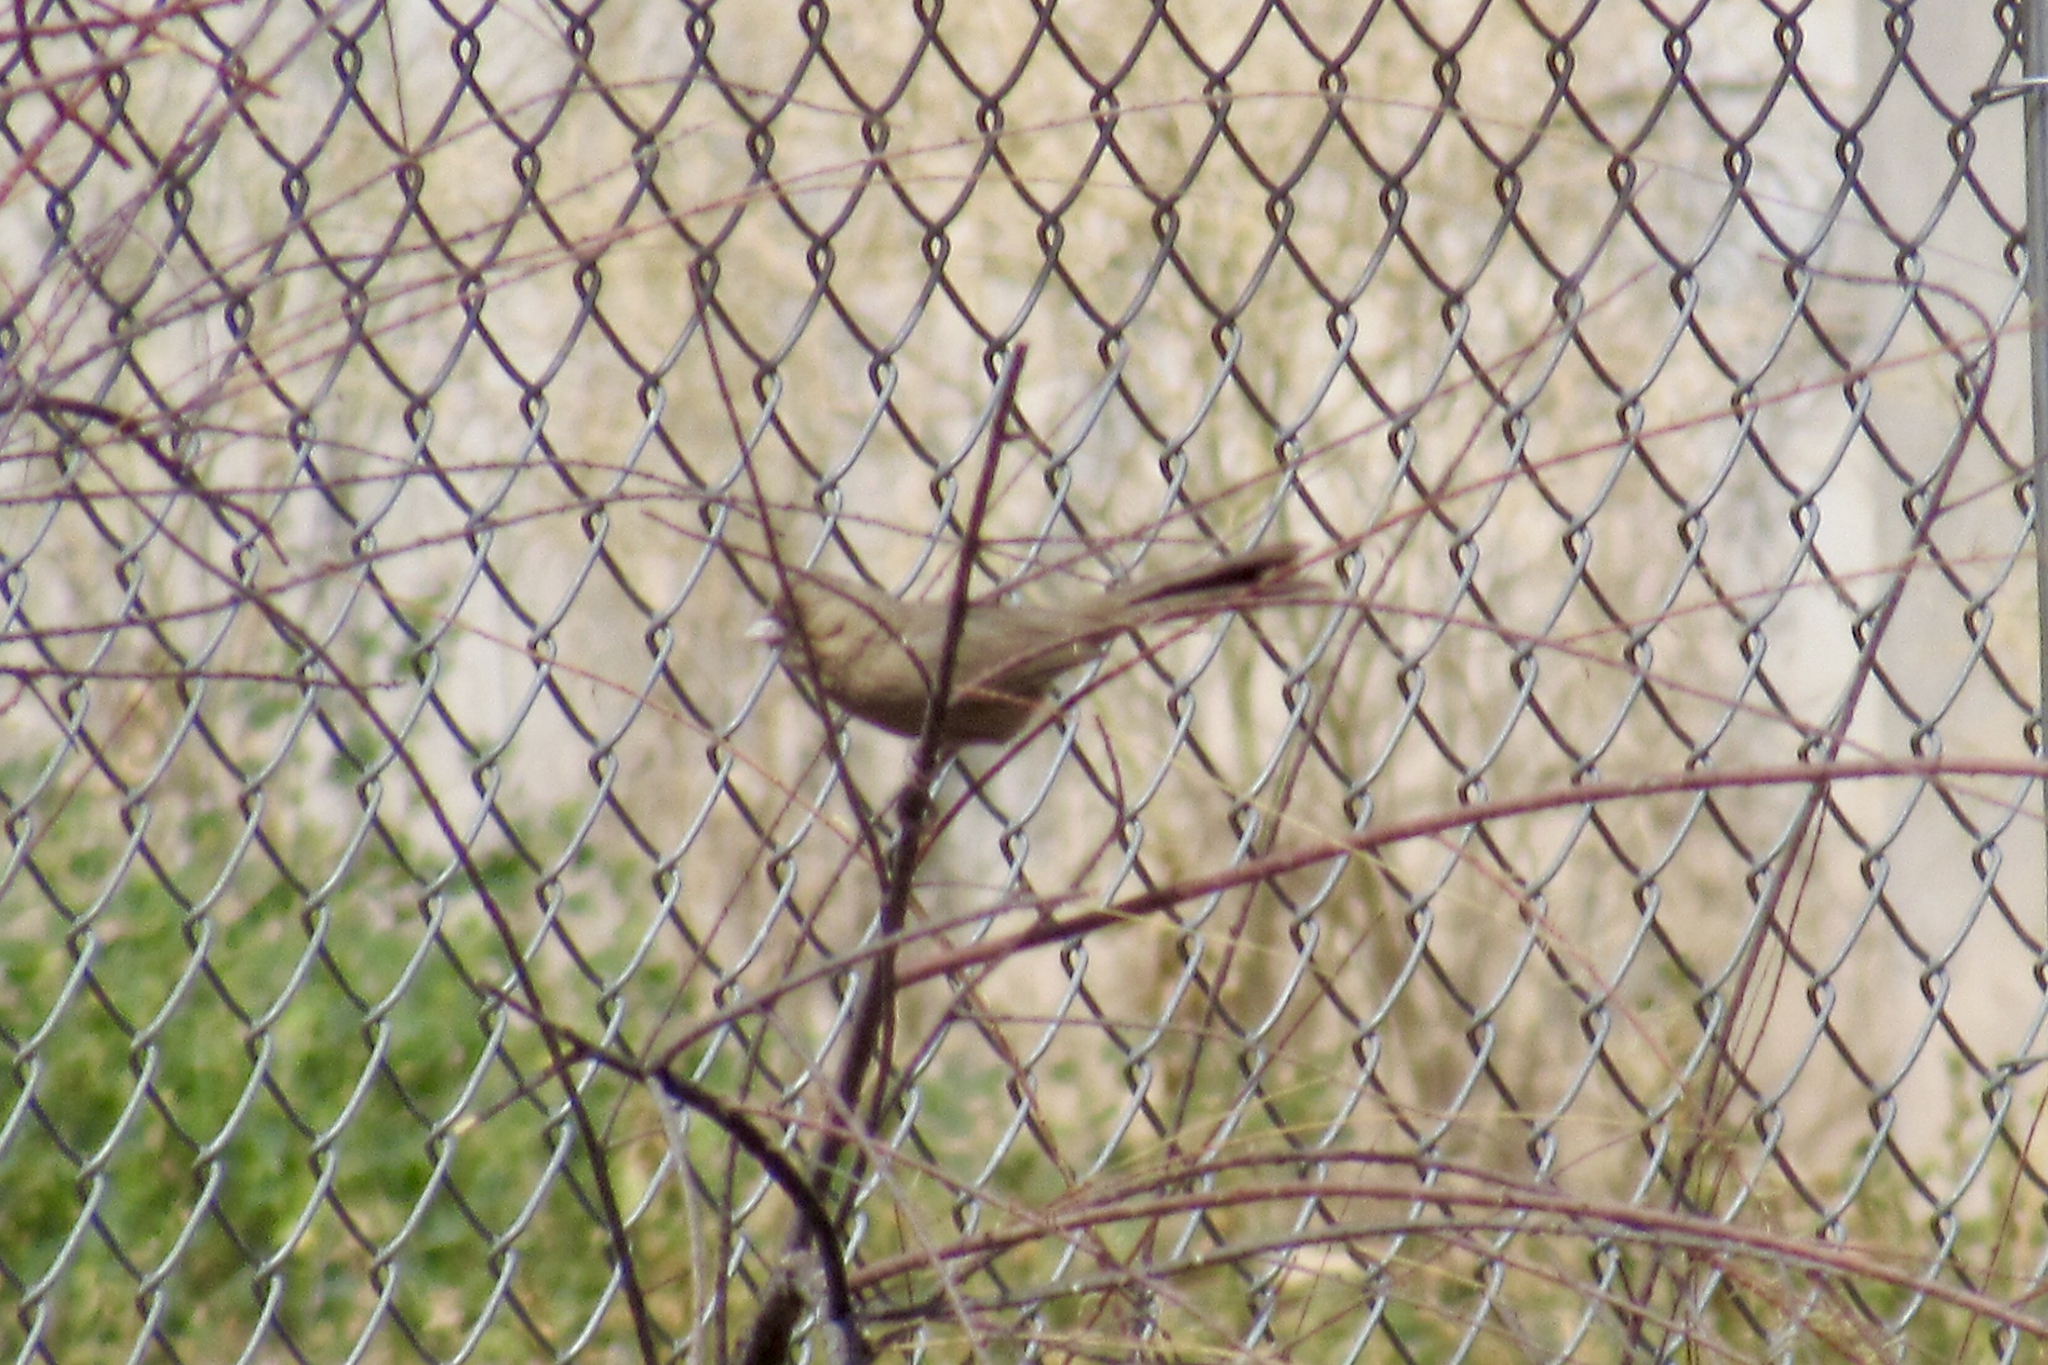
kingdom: Animalia
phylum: Chordata
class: Aves
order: Passeriformes
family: Passerellidae
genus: Melozone
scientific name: Melozone aberti
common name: Abert's towhee
